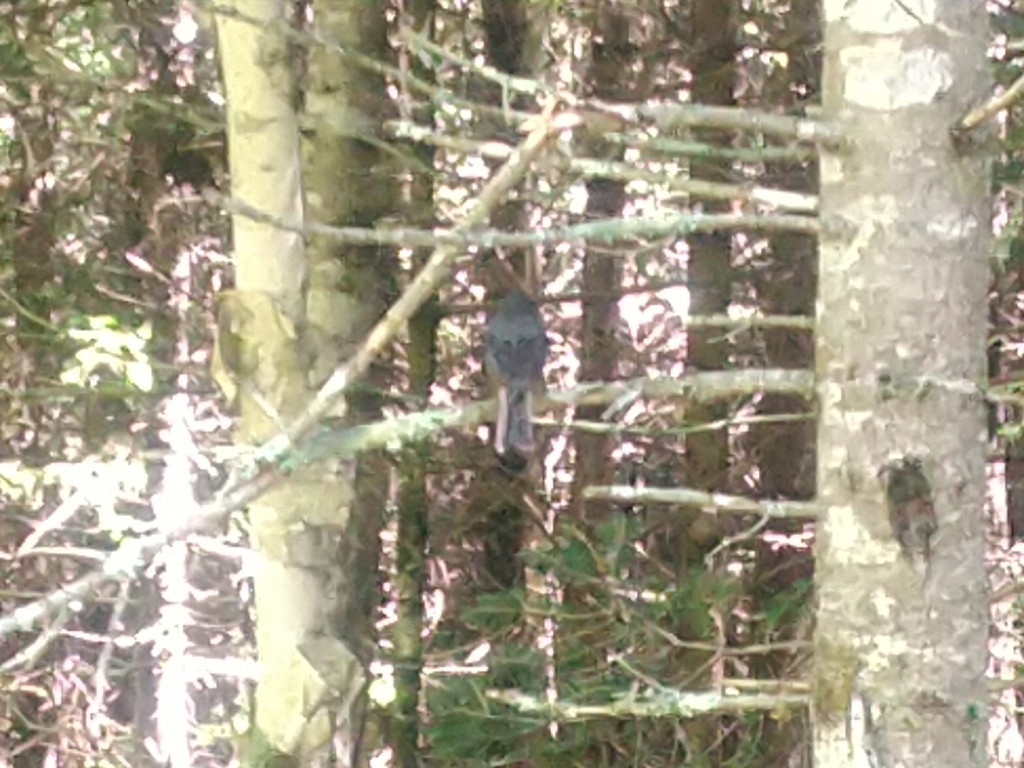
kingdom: Animalia
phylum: Chordata
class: Aves
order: Passeriformes
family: Passerellidae
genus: Junco
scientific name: Junco hyemalis
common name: Dark-eyed junco
